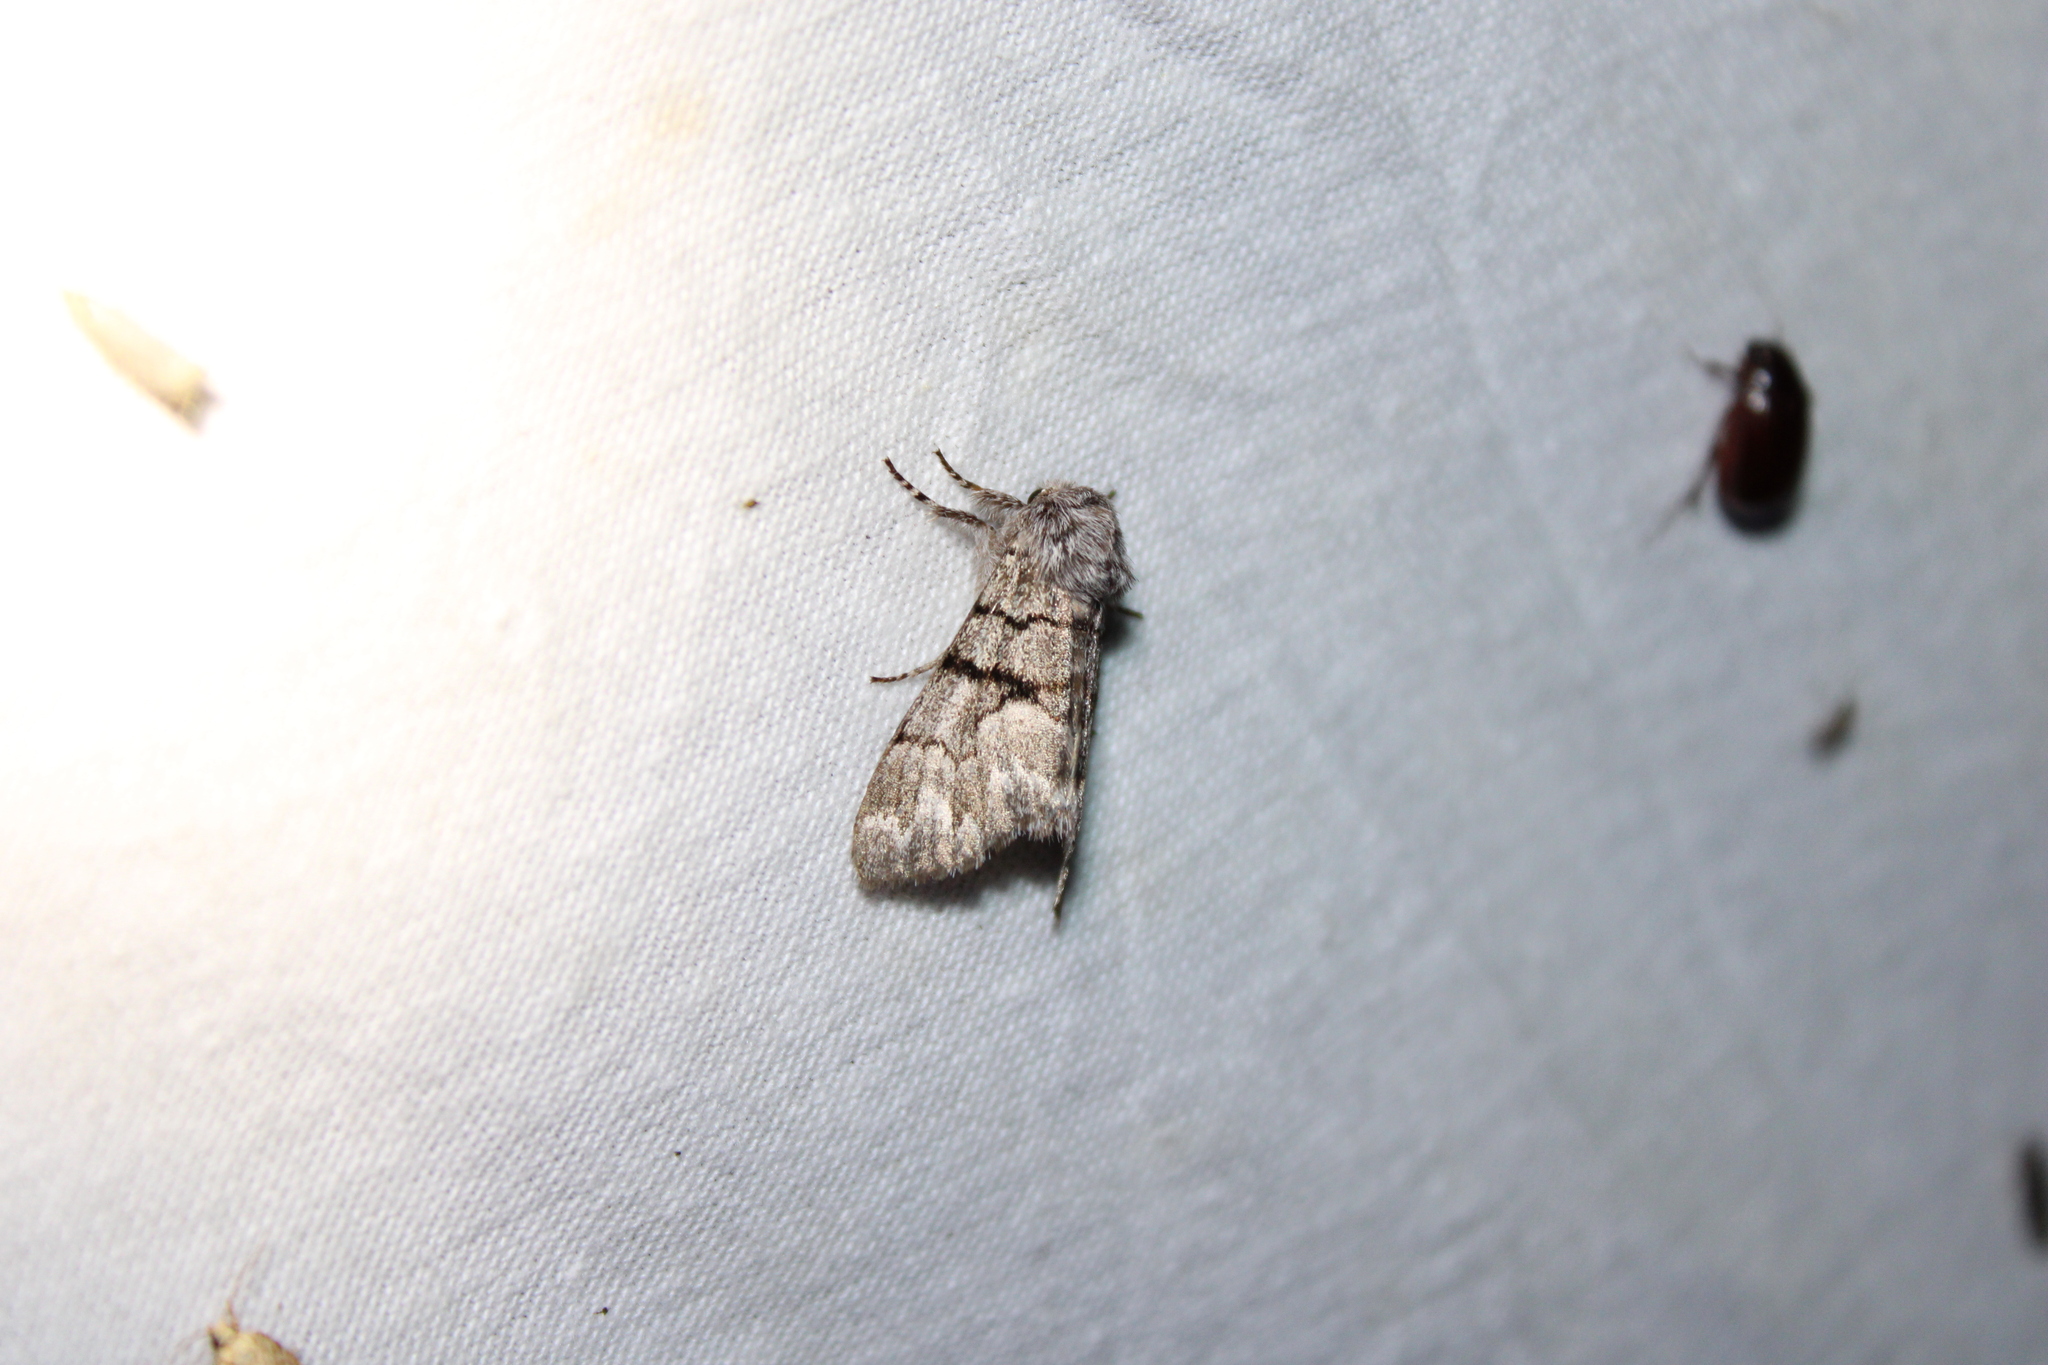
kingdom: Animalia
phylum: Arthropoda
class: Insecta
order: Lepidoptera
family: Noctuidae
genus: Panthea
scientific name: Panthea furcilla
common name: Eastern panthea moth
